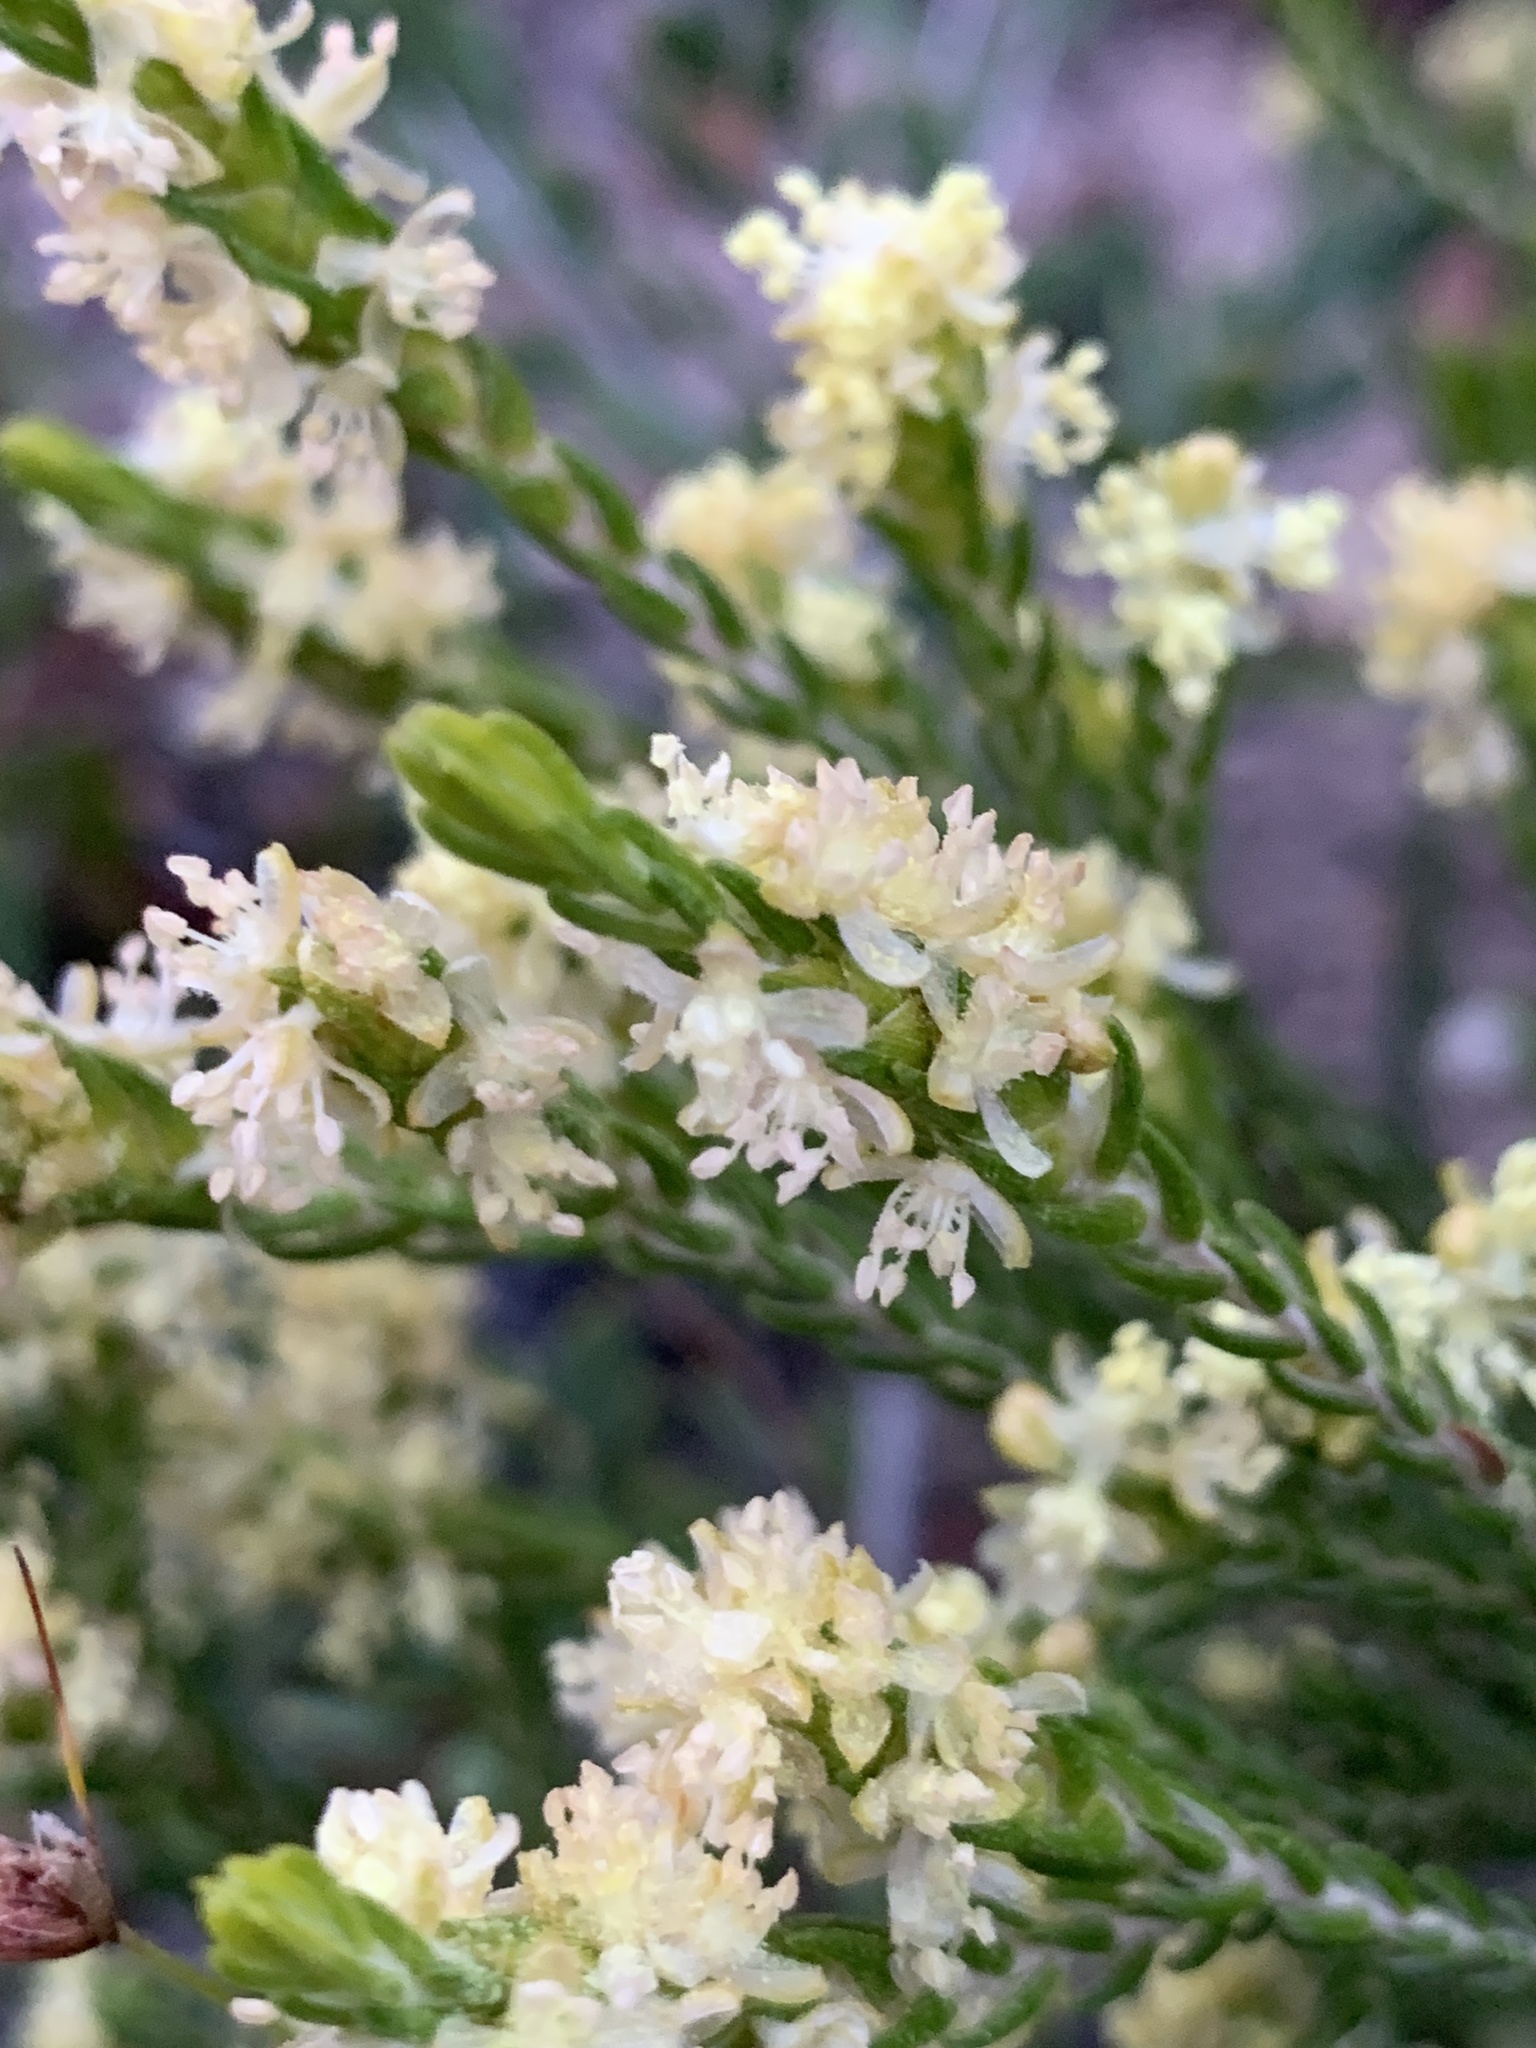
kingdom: Plantae
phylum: Tracheophyta
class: Magnoliopsida
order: Malvales
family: Thymelaeaceae
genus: Passerina
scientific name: Passerina corymbosa
